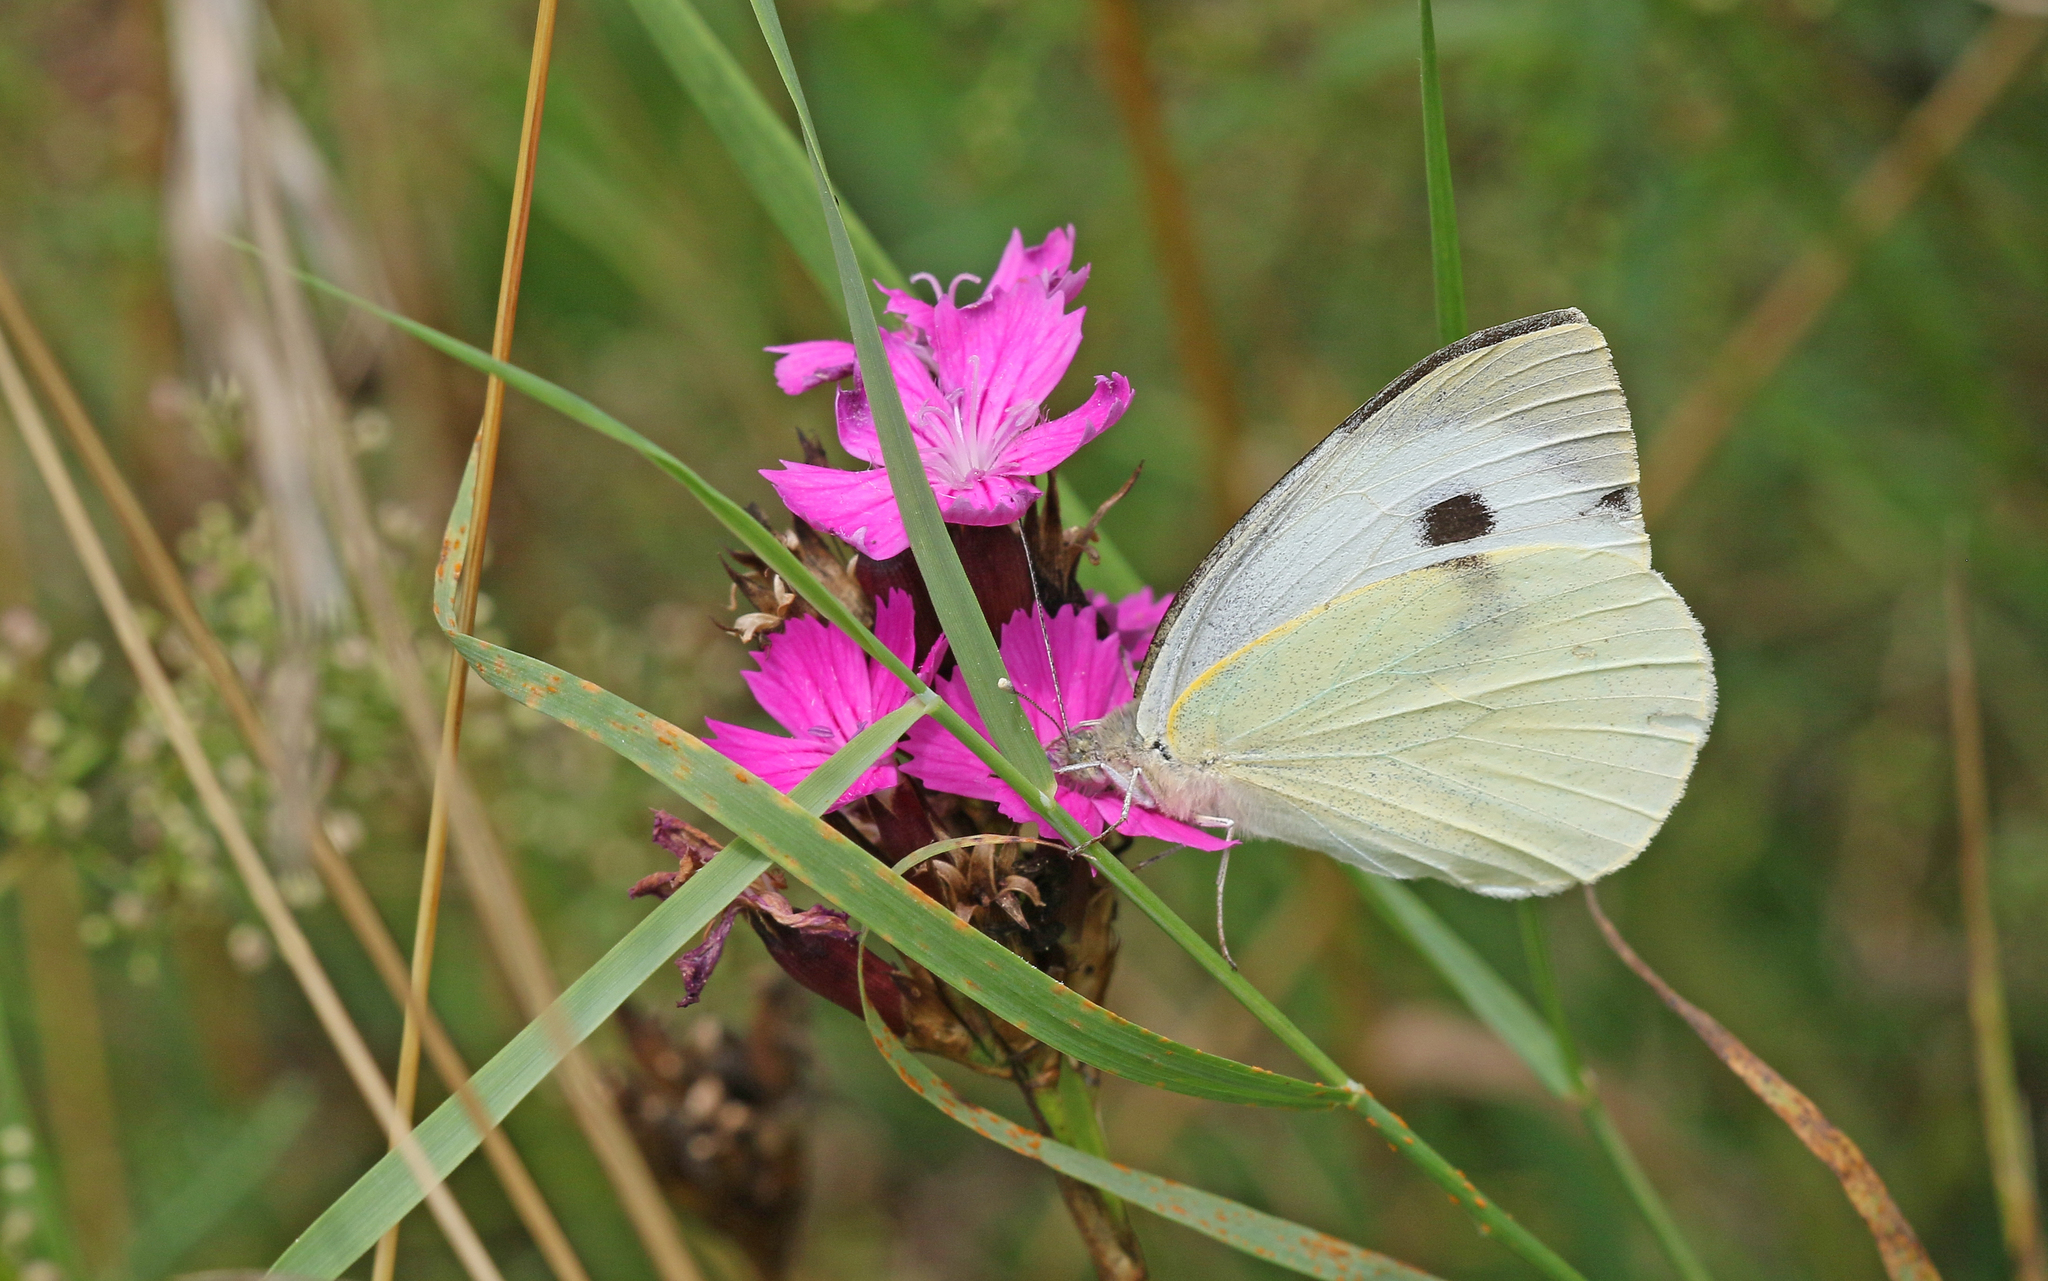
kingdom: Animalia
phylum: Arthropoda
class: Insecta
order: Lepidoptera
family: Pieridae
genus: Pieris
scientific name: Pieris brassicae
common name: Large white
